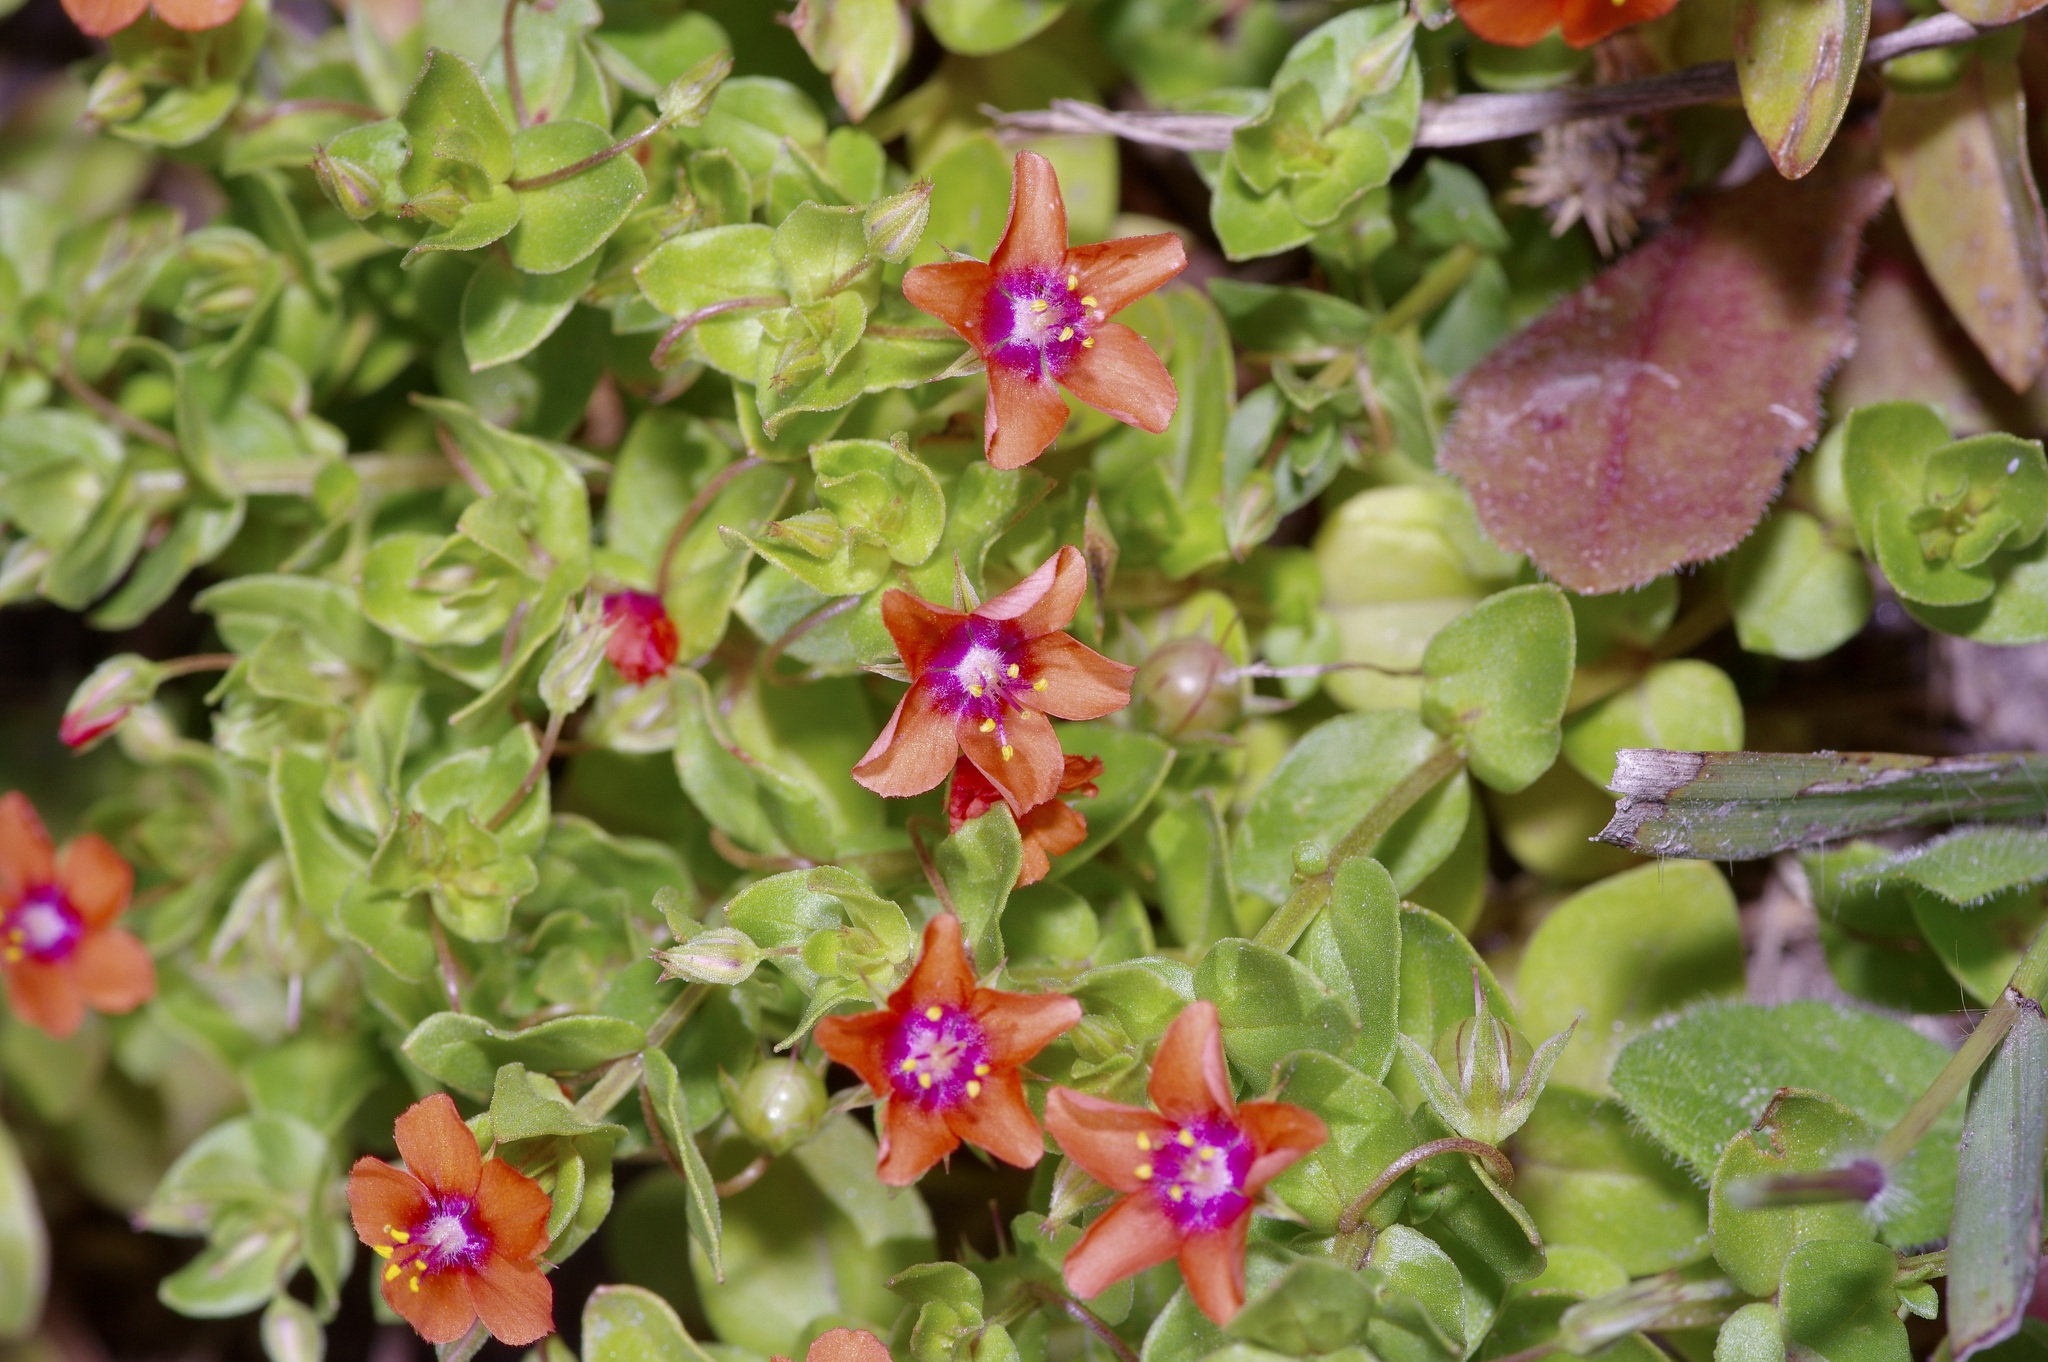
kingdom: Plantae
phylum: Tracheophyta
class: Magnoliopsida
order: Ericales
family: Primulaceae
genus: Lysimachia
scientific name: Lysimachia arvensis
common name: Scarlet pimpernel
